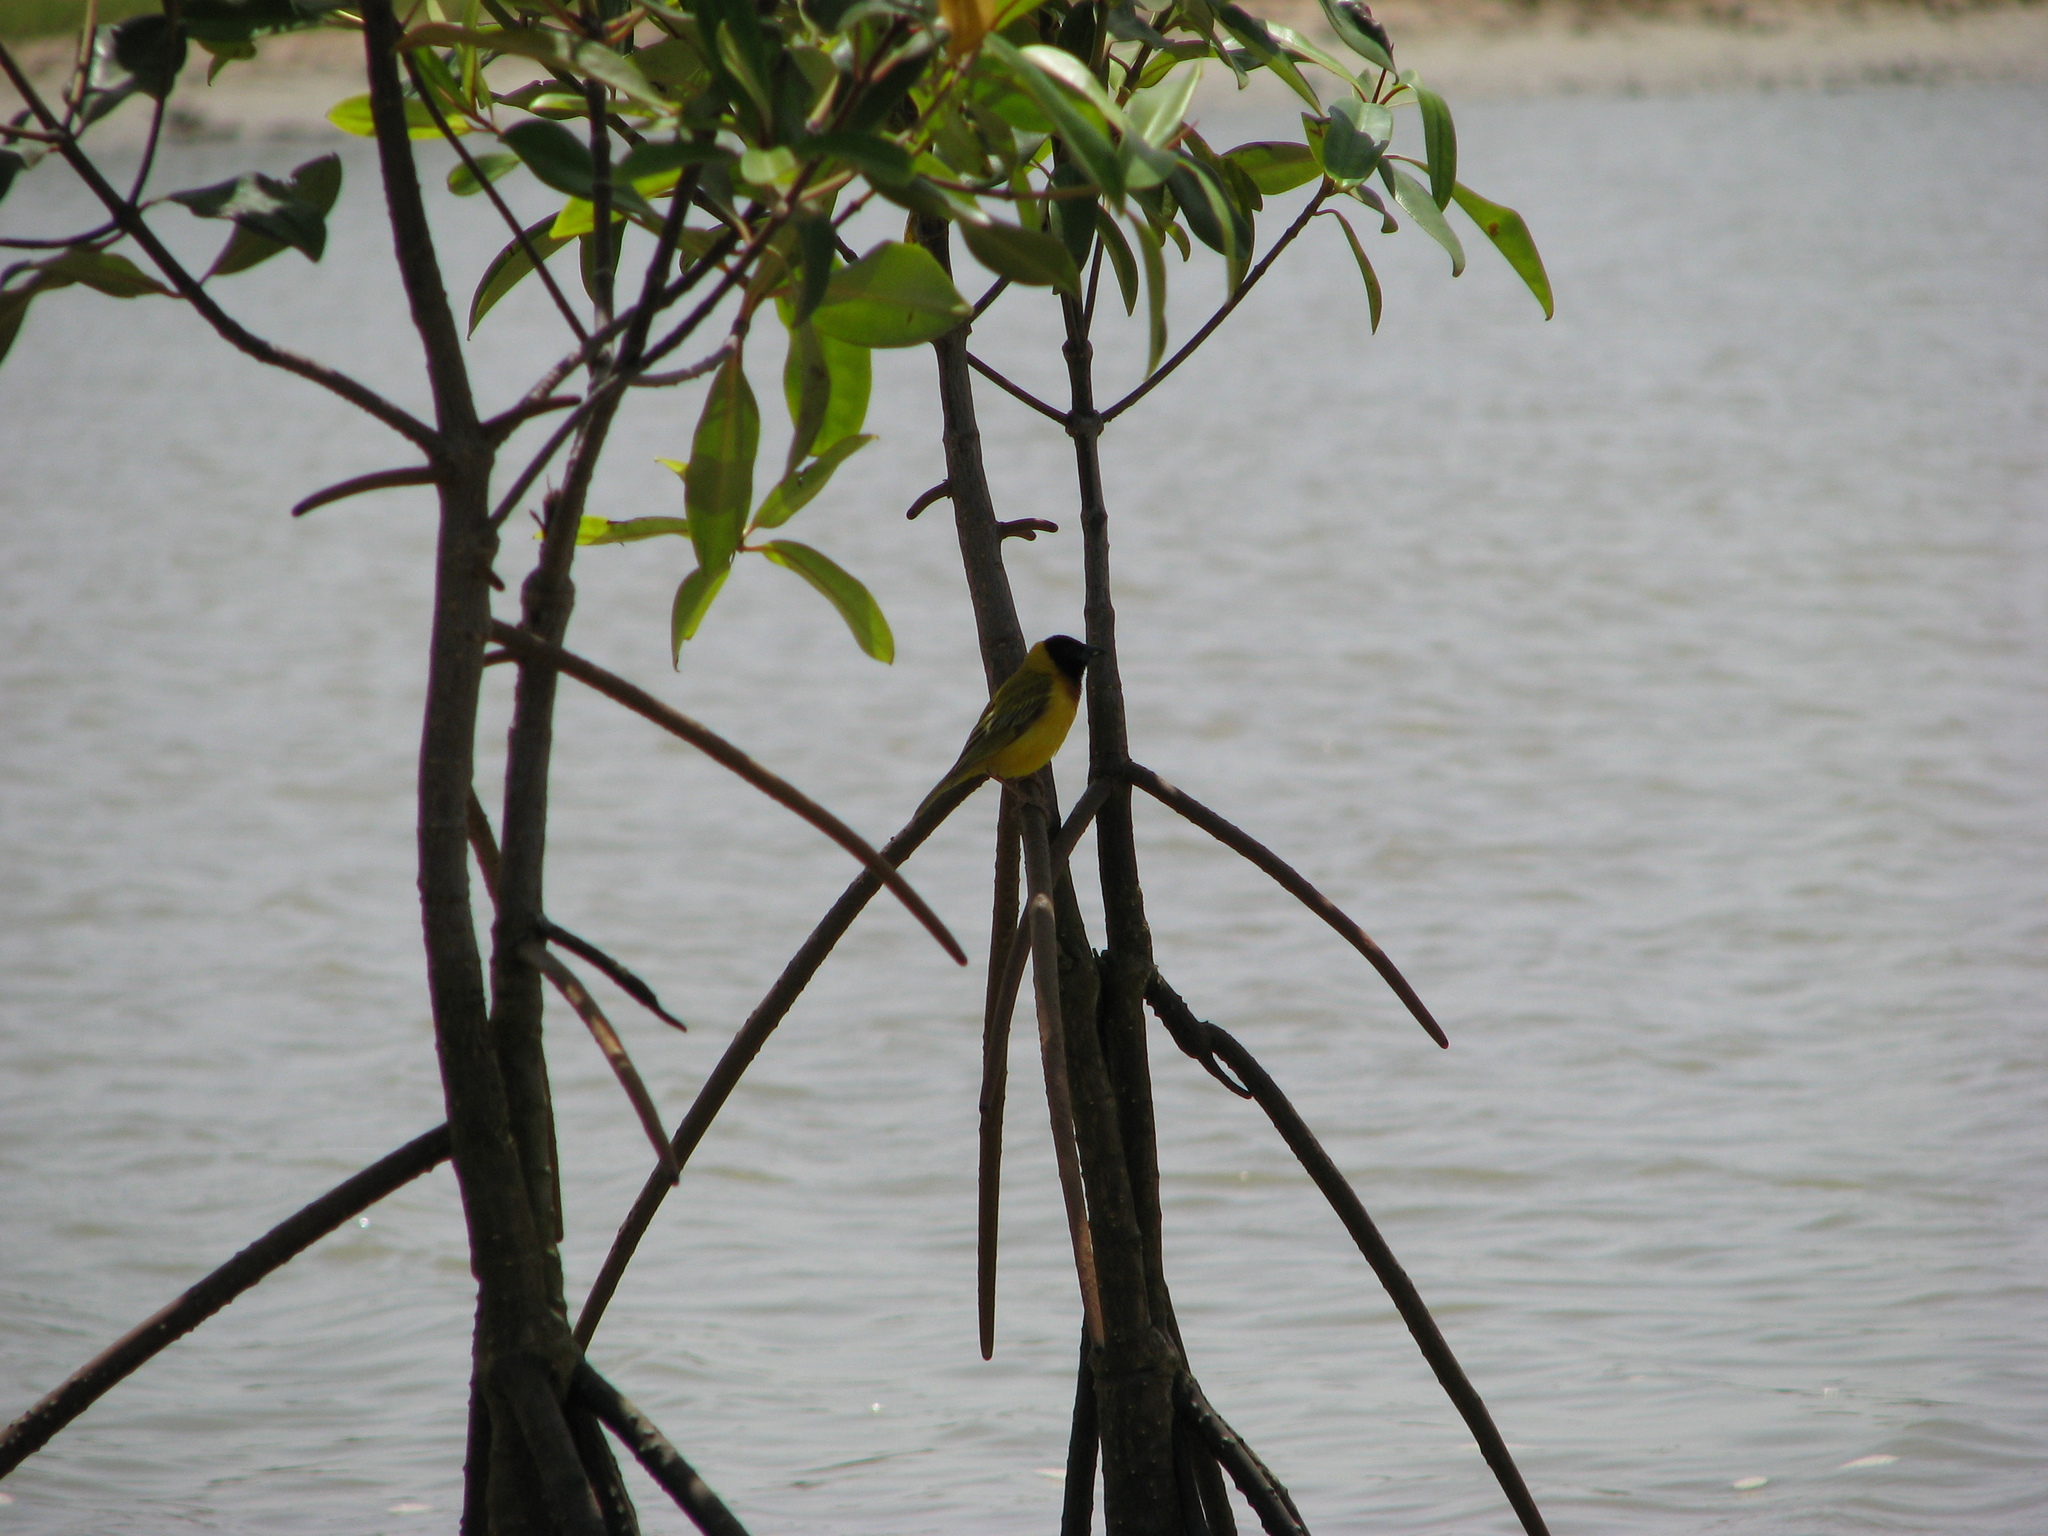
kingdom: Animalia
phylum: Chordata
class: Aves
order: Passeriformes
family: Ploceidae
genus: Ploceus
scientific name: Ploceus melanocephalus
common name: Black-headed weaver
